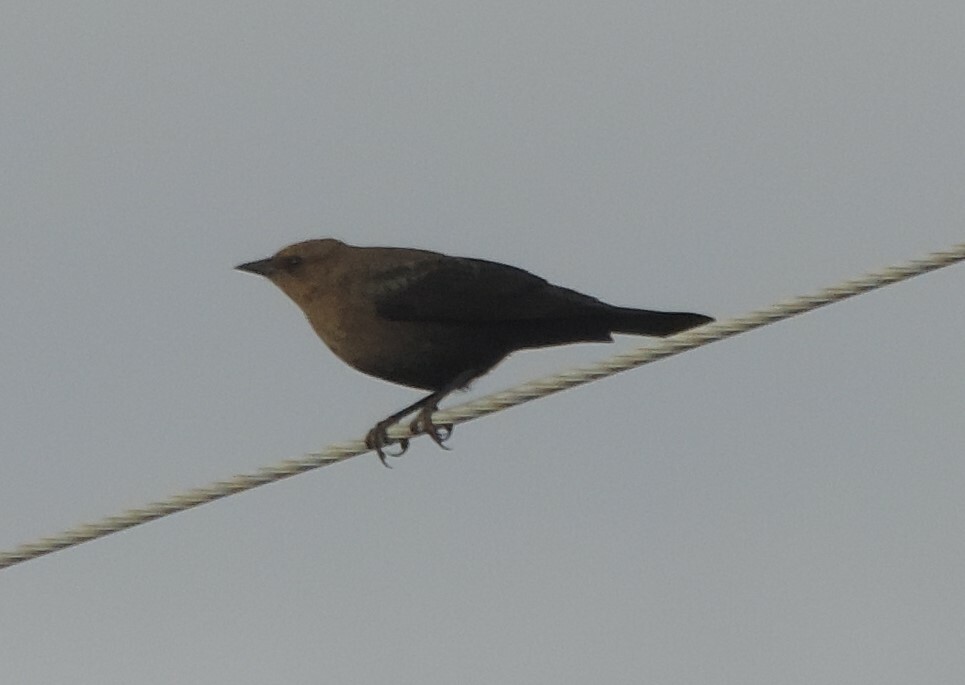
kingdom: Animalia
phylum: Chordata
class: Aves
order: Passeriformes
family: Icteridae
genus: Euphagus
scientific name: Euphagus cyanocephalus
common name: Brewer's blackbird
